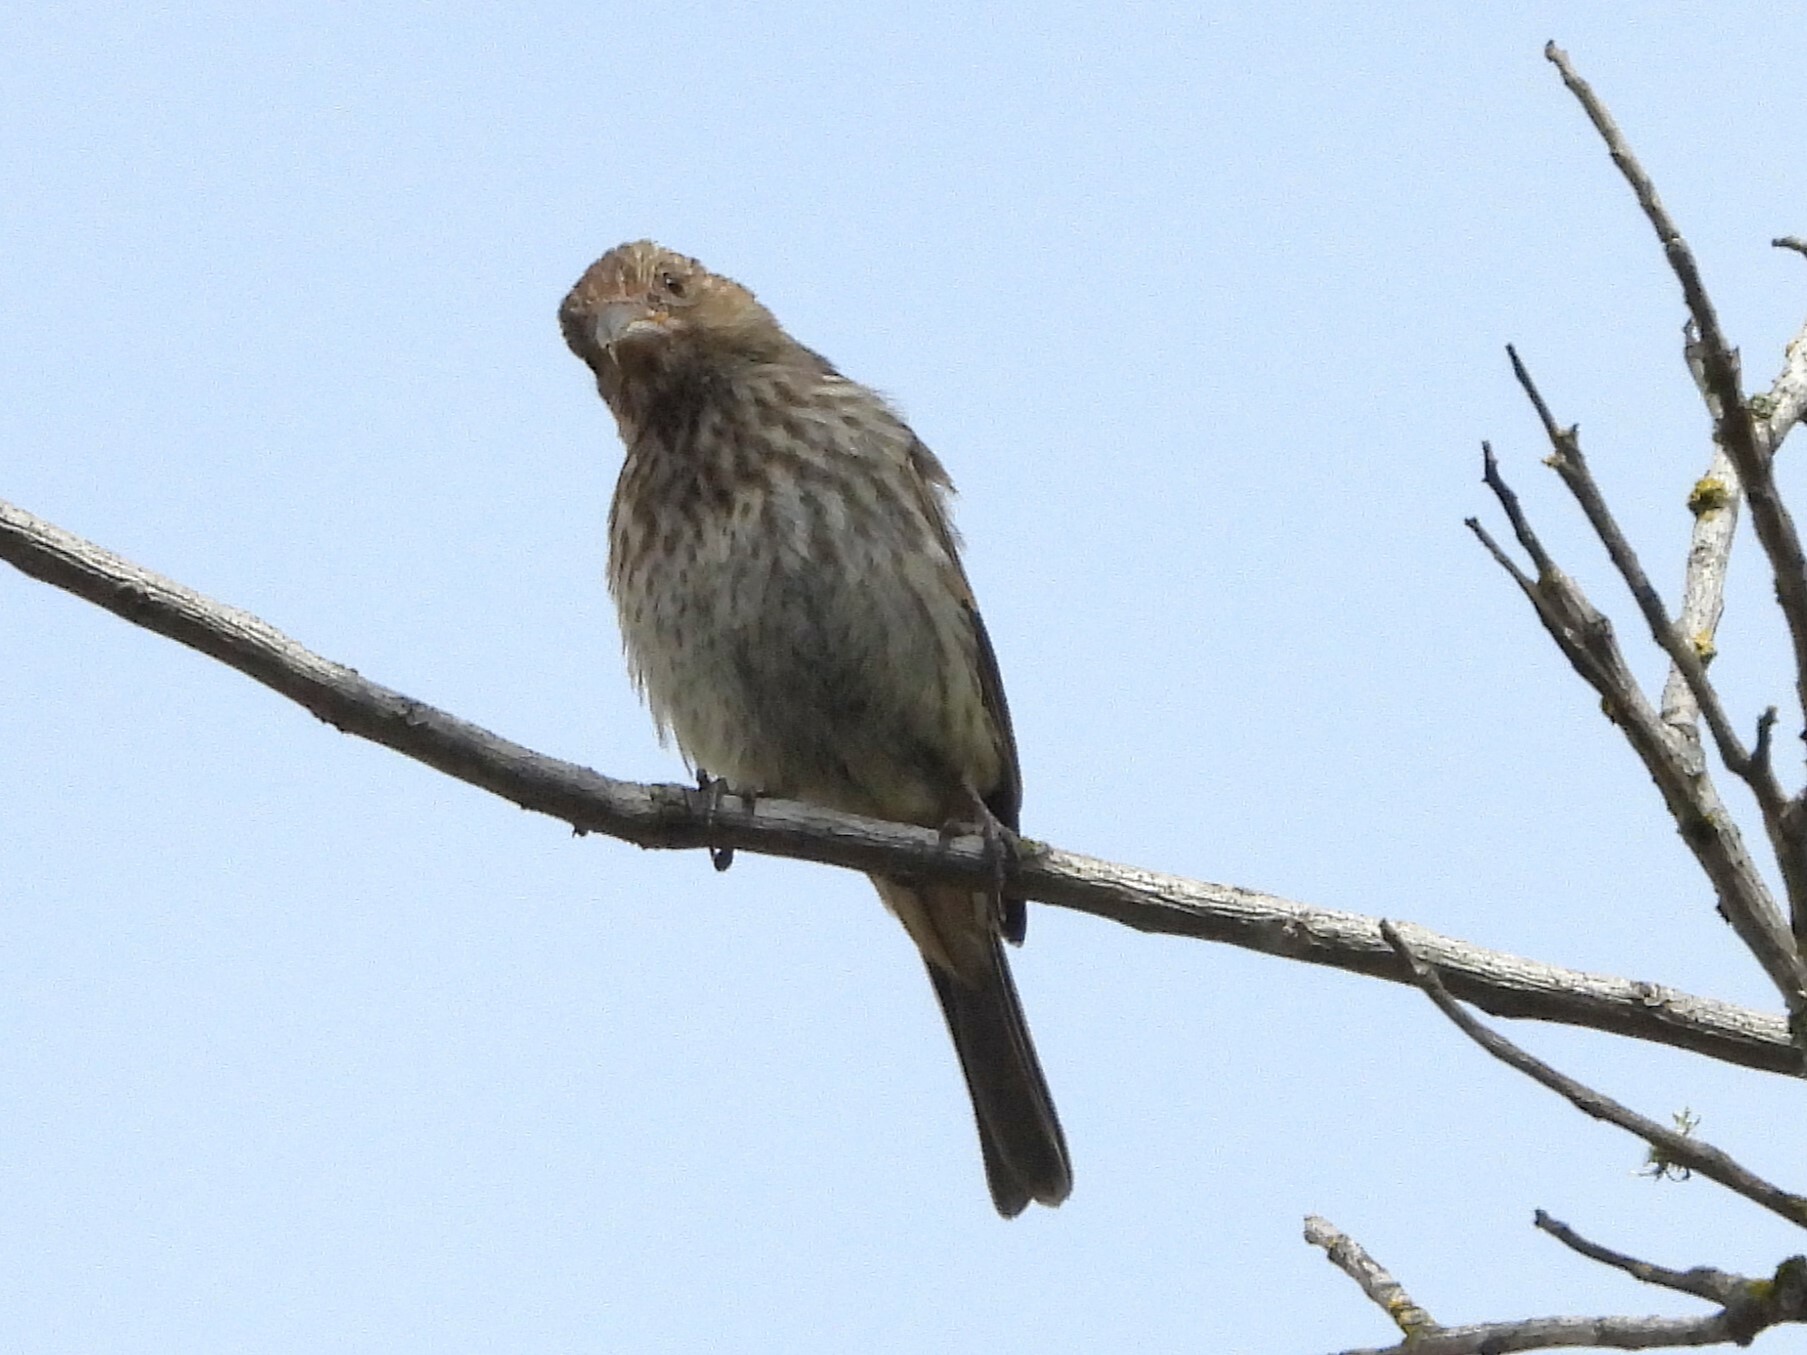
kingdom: Animalia
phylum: Chordata
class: Aves
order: Passeriformes
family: Fringillidae
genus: Haemorhous
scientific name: Haemorhous mexicanus
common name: House finch
